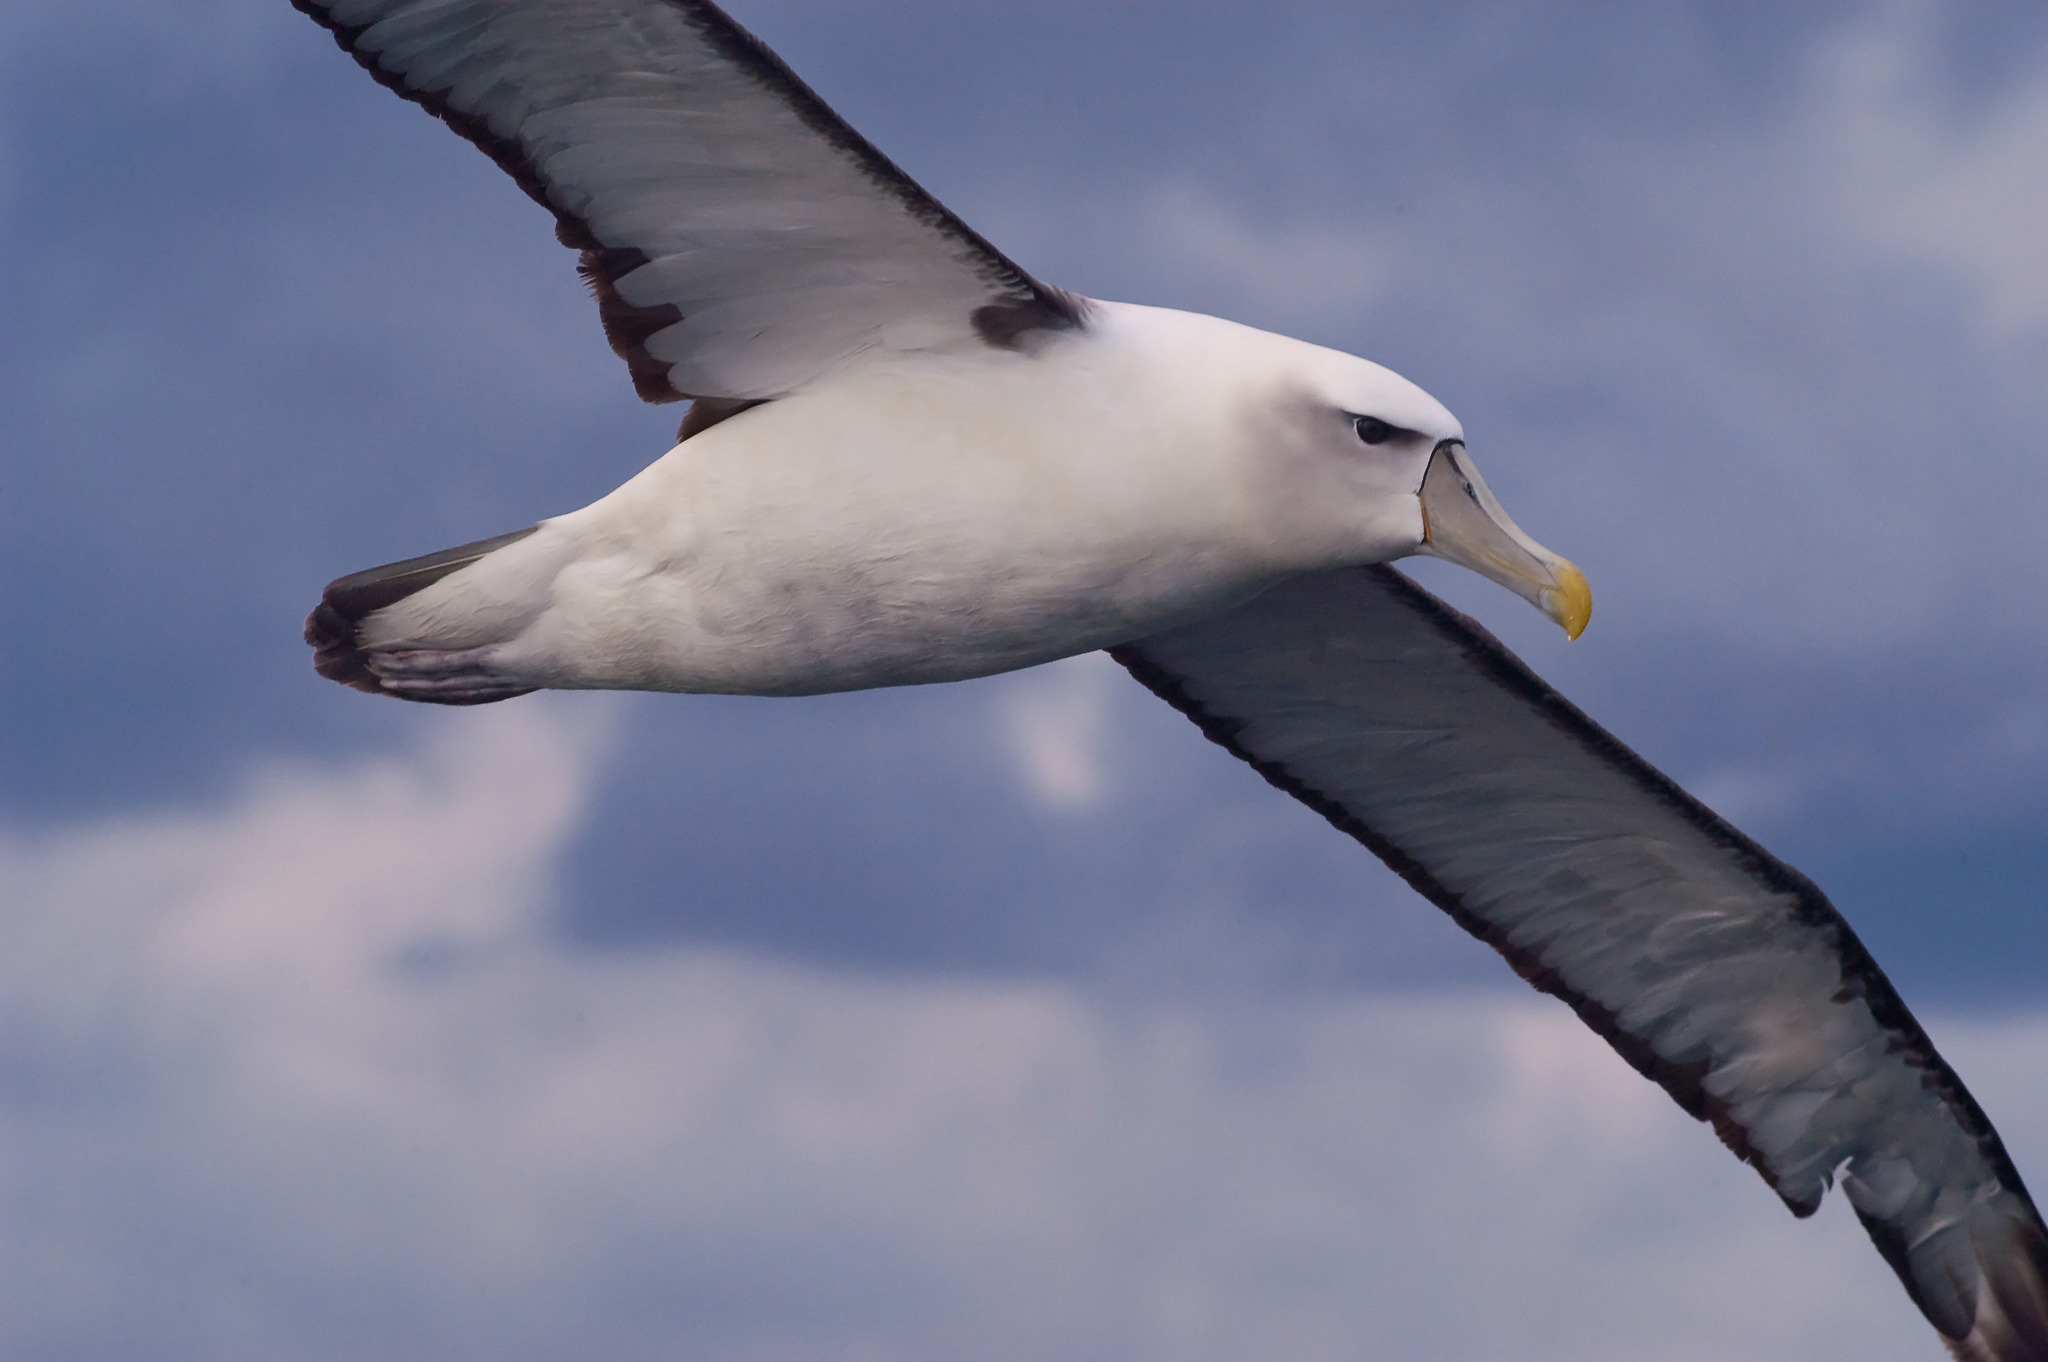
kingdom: Animalia
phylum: Chordata
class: Aves
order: Procellariiformes
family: Diomedeidae
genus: Thalassarche
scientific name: Thalassarche cauta
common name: Shy albatross
